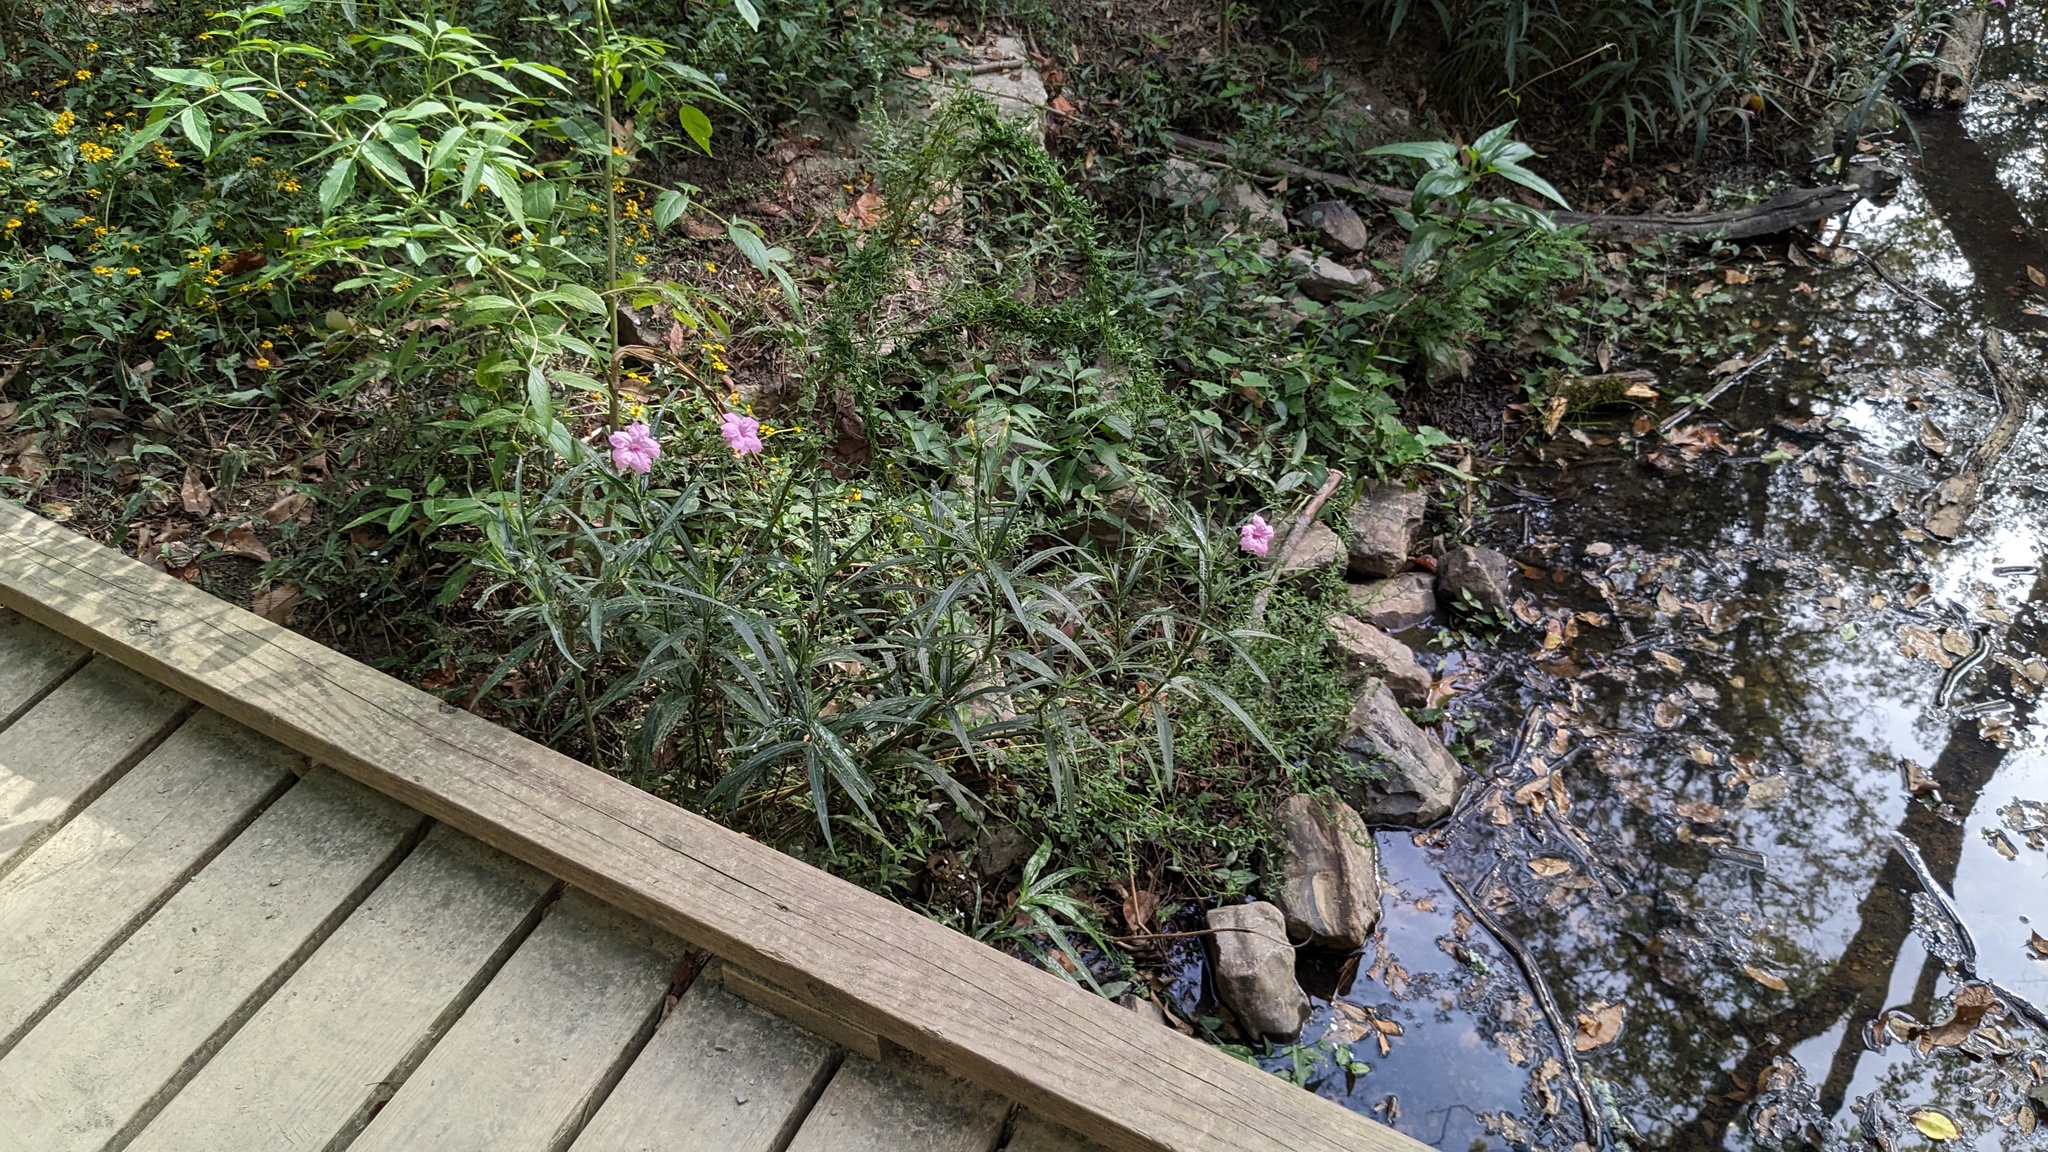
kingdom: Plantae
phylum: Tracheophyta
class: Magnoliopsida
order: Lamiales
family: Acanthaceae
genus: Ruellia
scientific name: Ruellia simplex
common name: Softseed wild petunia
